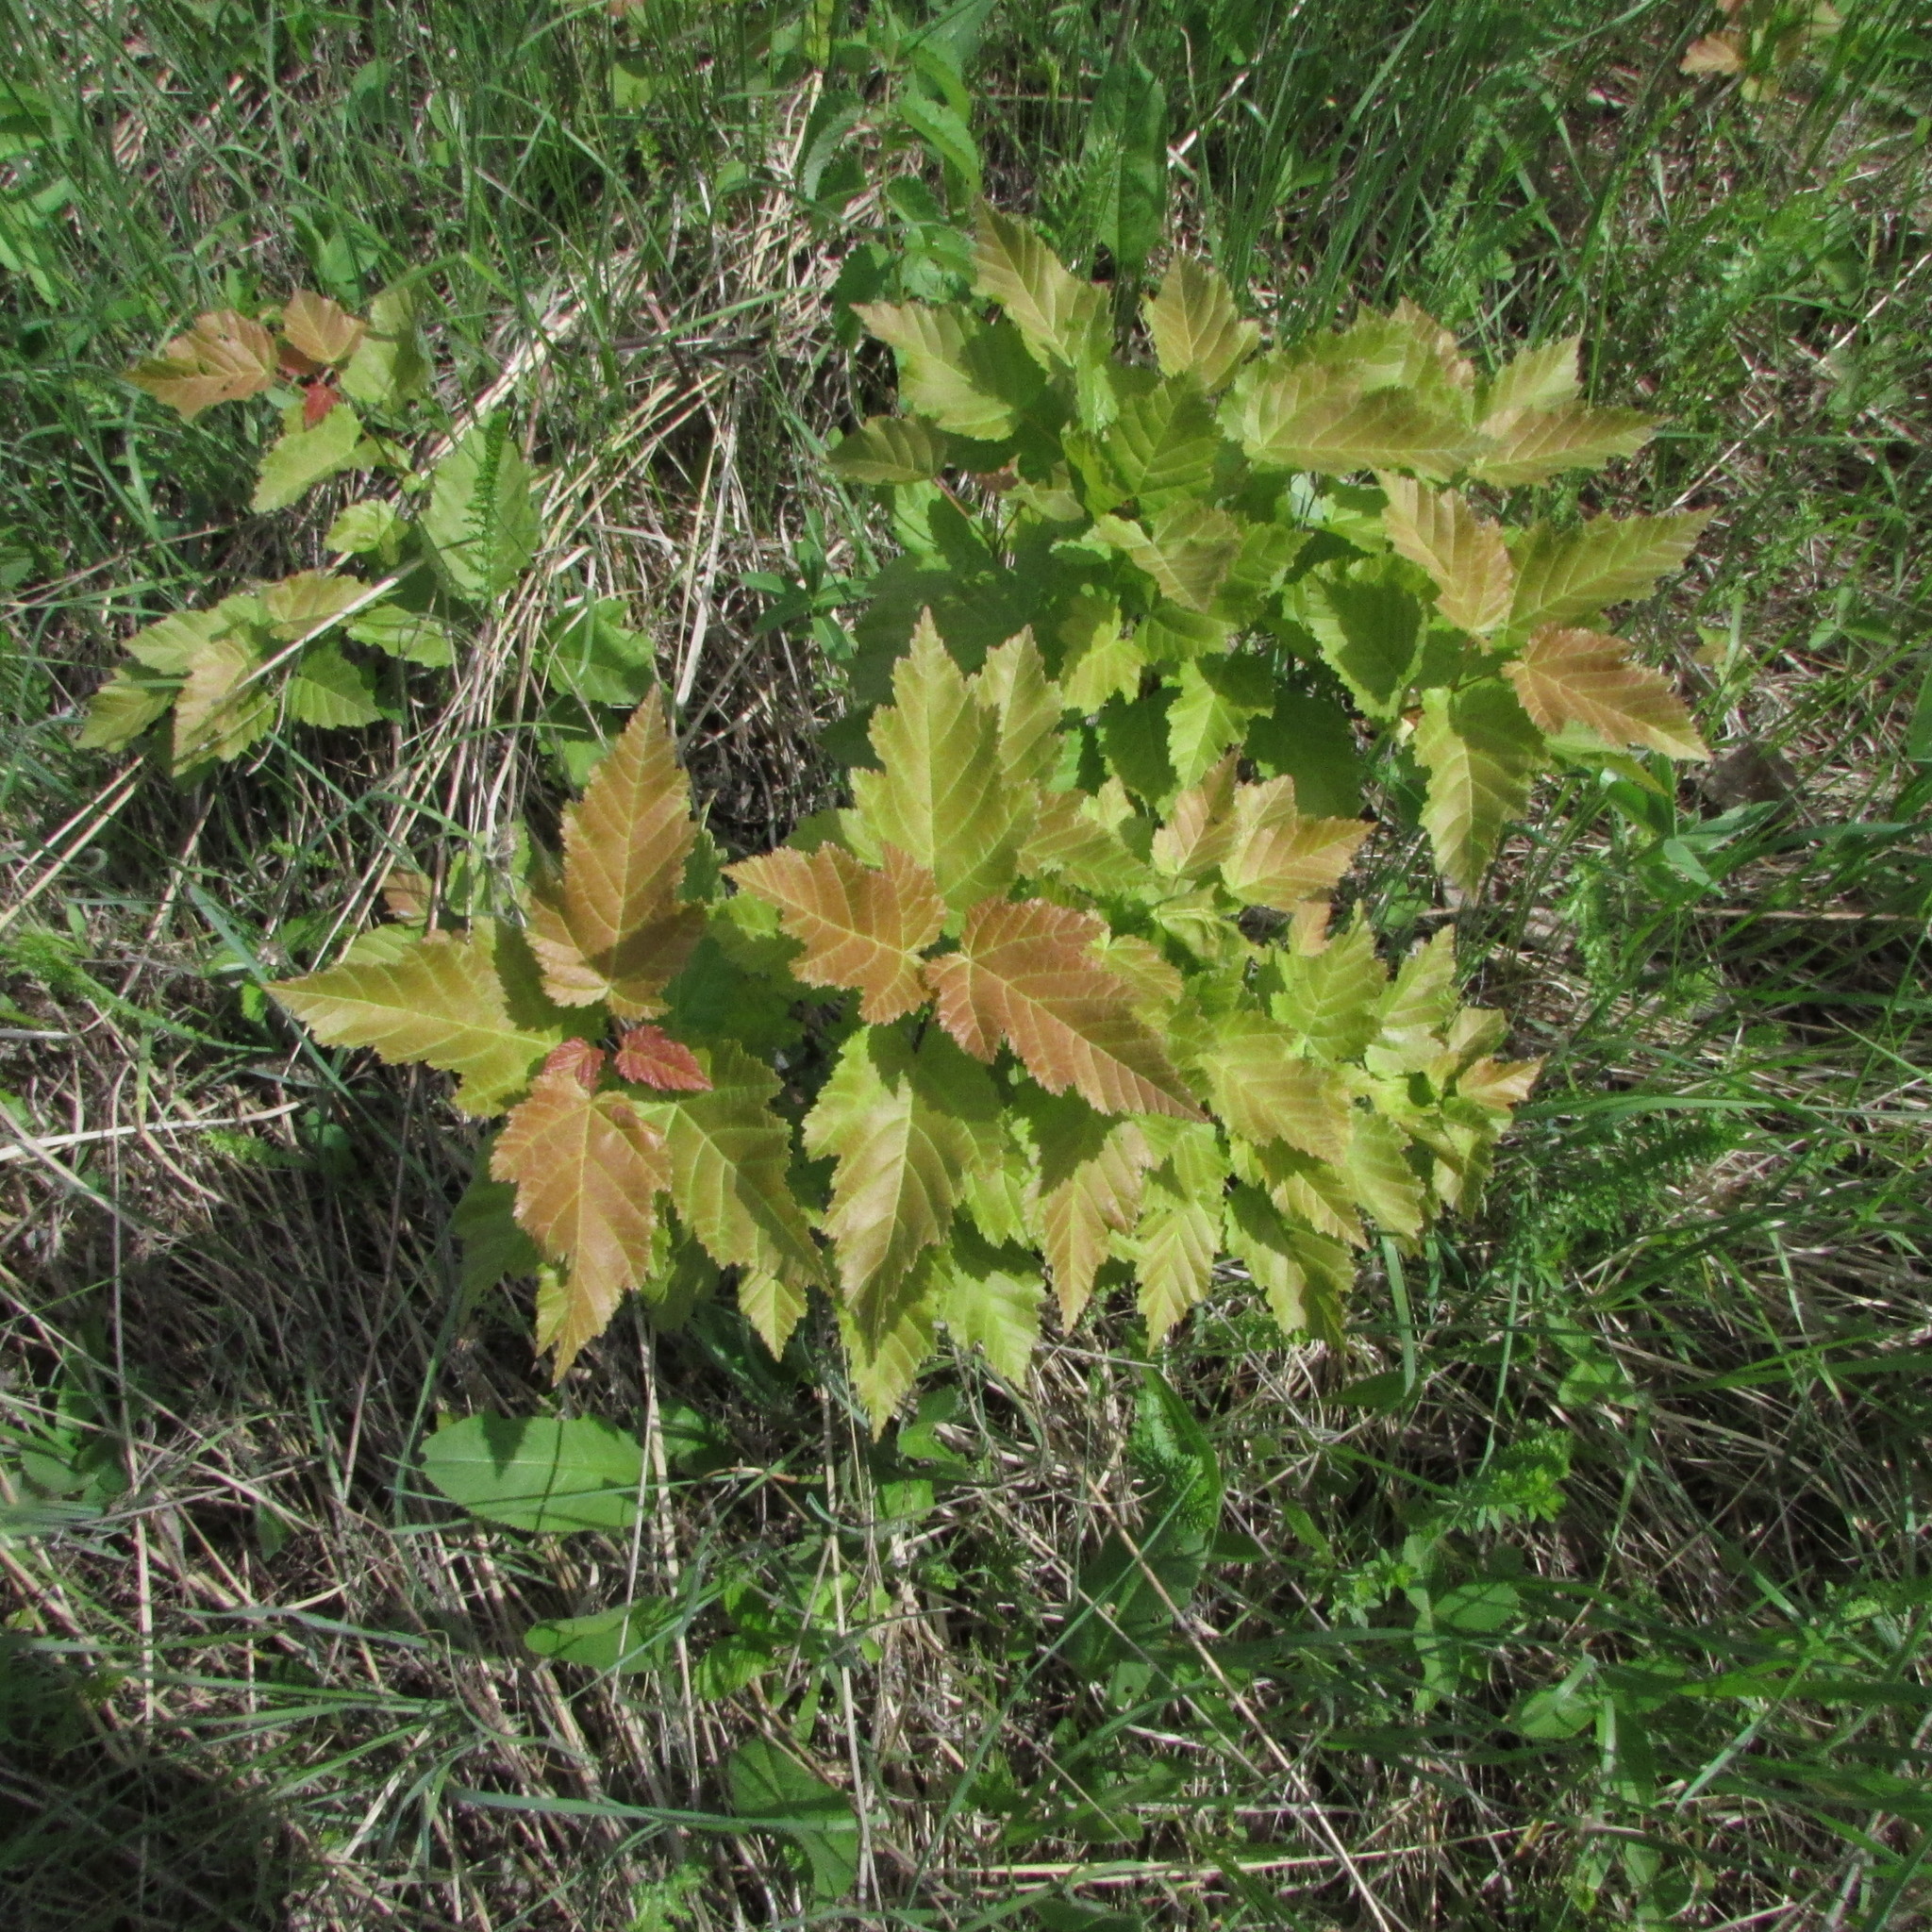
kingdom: Plantae
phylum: Tracheophyta
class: Magnoliopsida
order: Sapindales
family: Sapindaceae
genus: Acer
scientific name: Acer tataricum
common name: Tartar maple
